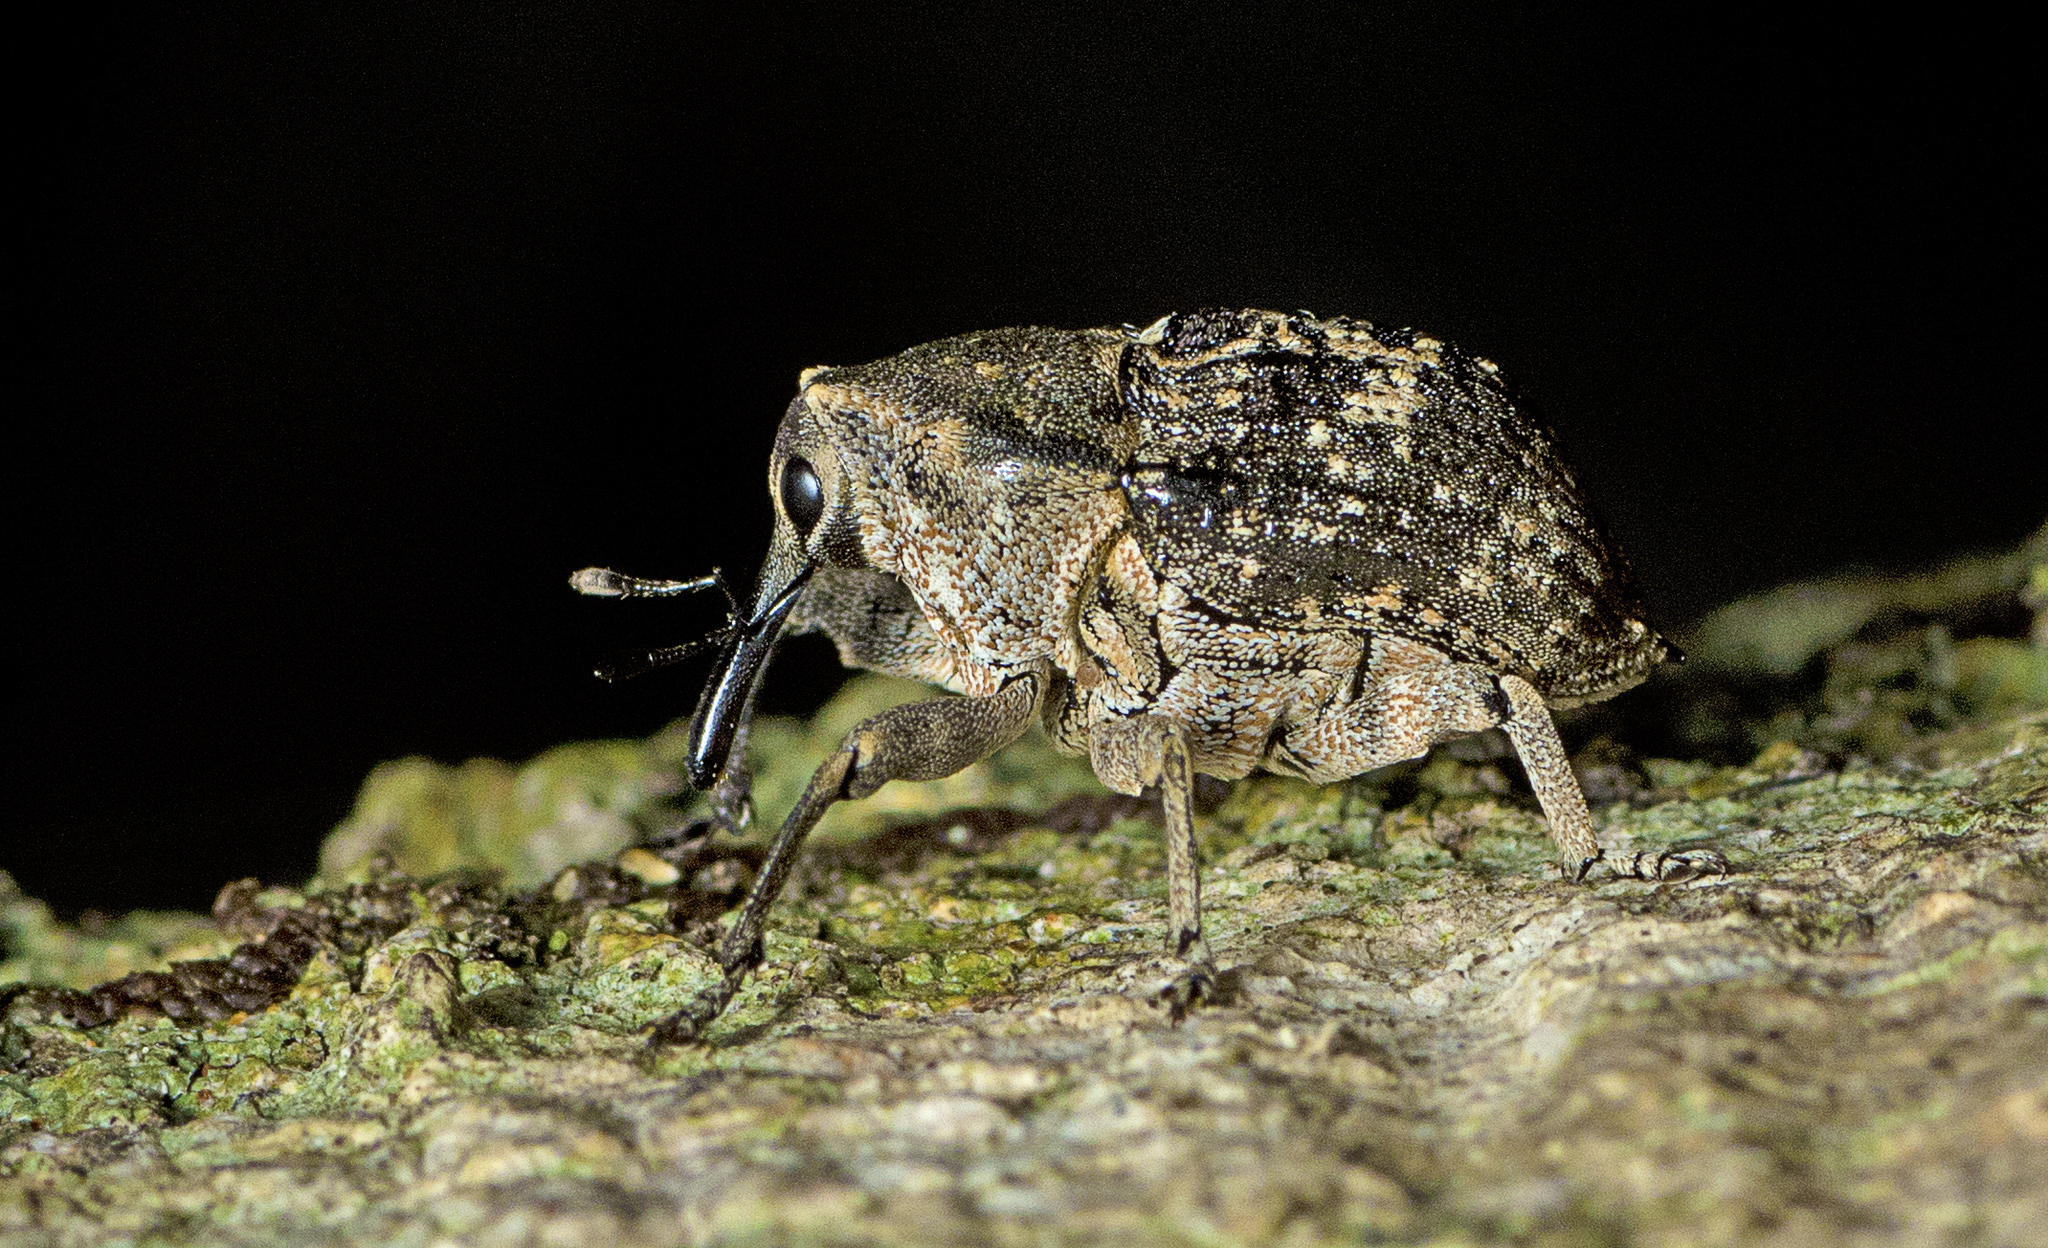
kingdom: Animalia
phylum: Arthropoda
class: Insecta
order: Coleoptera
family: Curculionidae
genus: Eutyrhinus
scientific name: Eutyrhinus meditabundus
